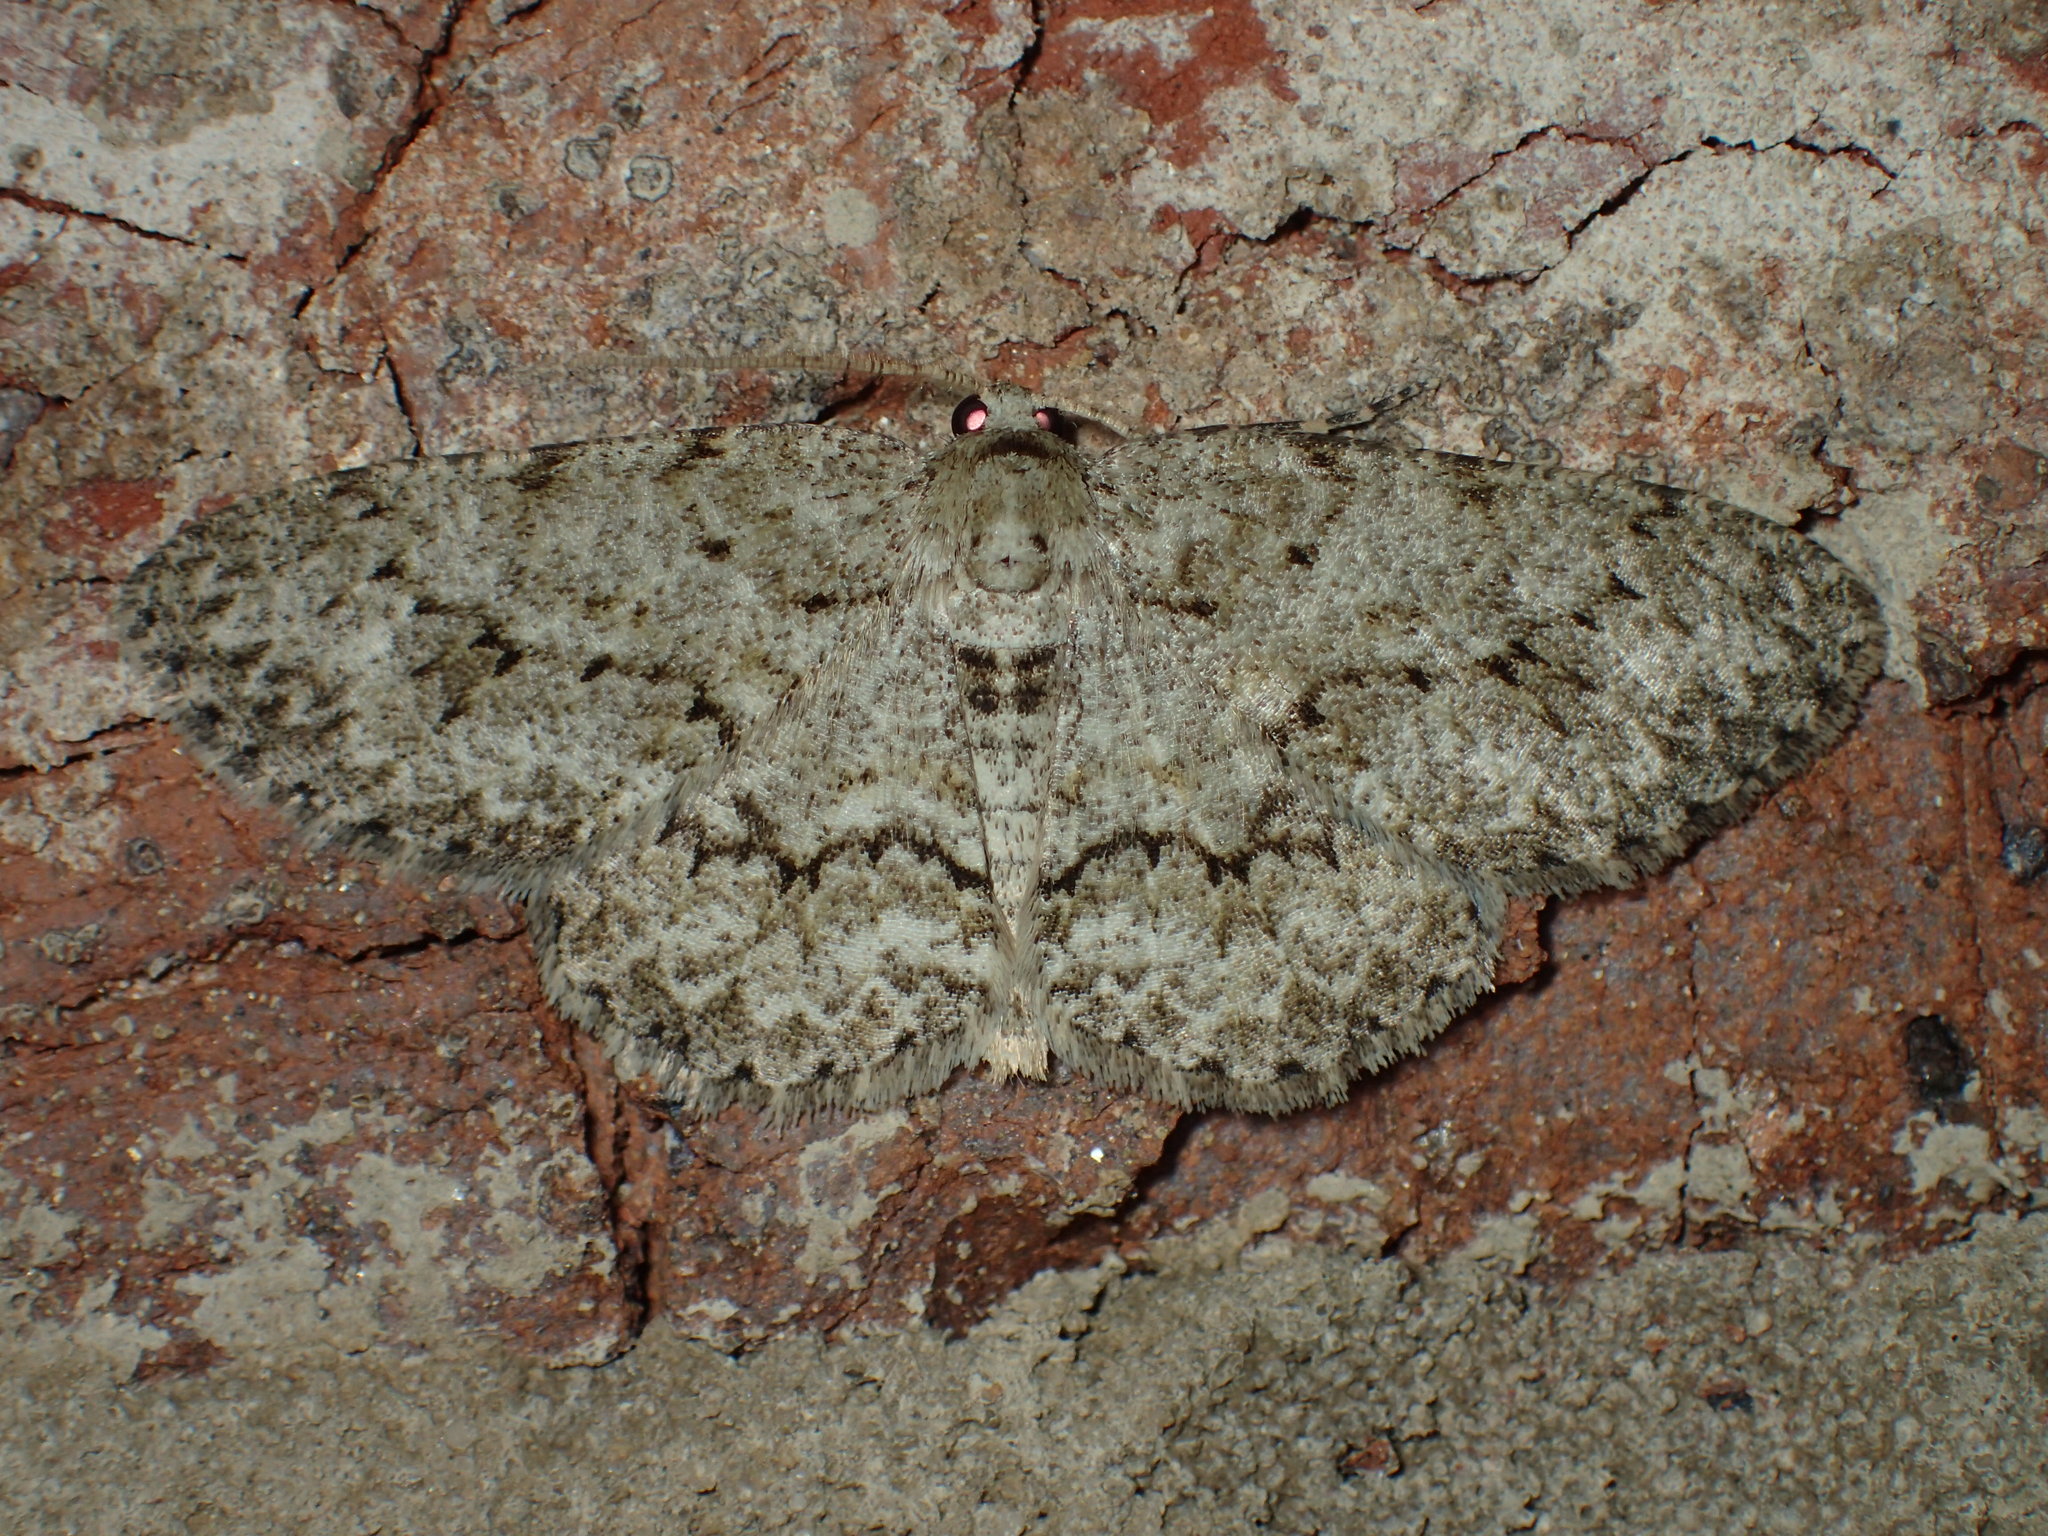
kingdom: Animalia
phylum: Arthropoda
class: Insecta
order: Lepidoptera
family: Geometridae
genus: Ectropis
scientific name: Ectropis crepuscularia
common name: Engrailed
